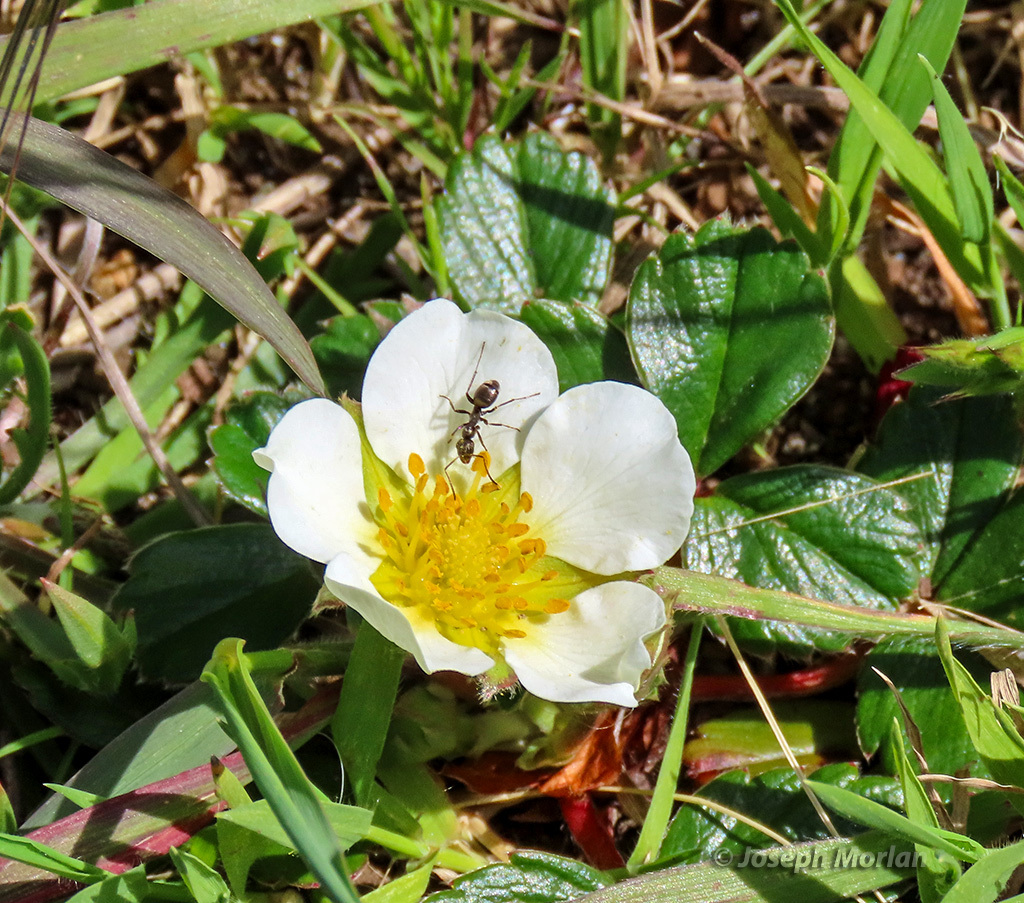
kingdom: Plantae
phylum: Tracheophyta
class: Magnoliopsida
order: Rosales
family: Rosaceae
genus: Fragaria
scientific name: Fragaria chiloensis
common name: Beach strawberry
